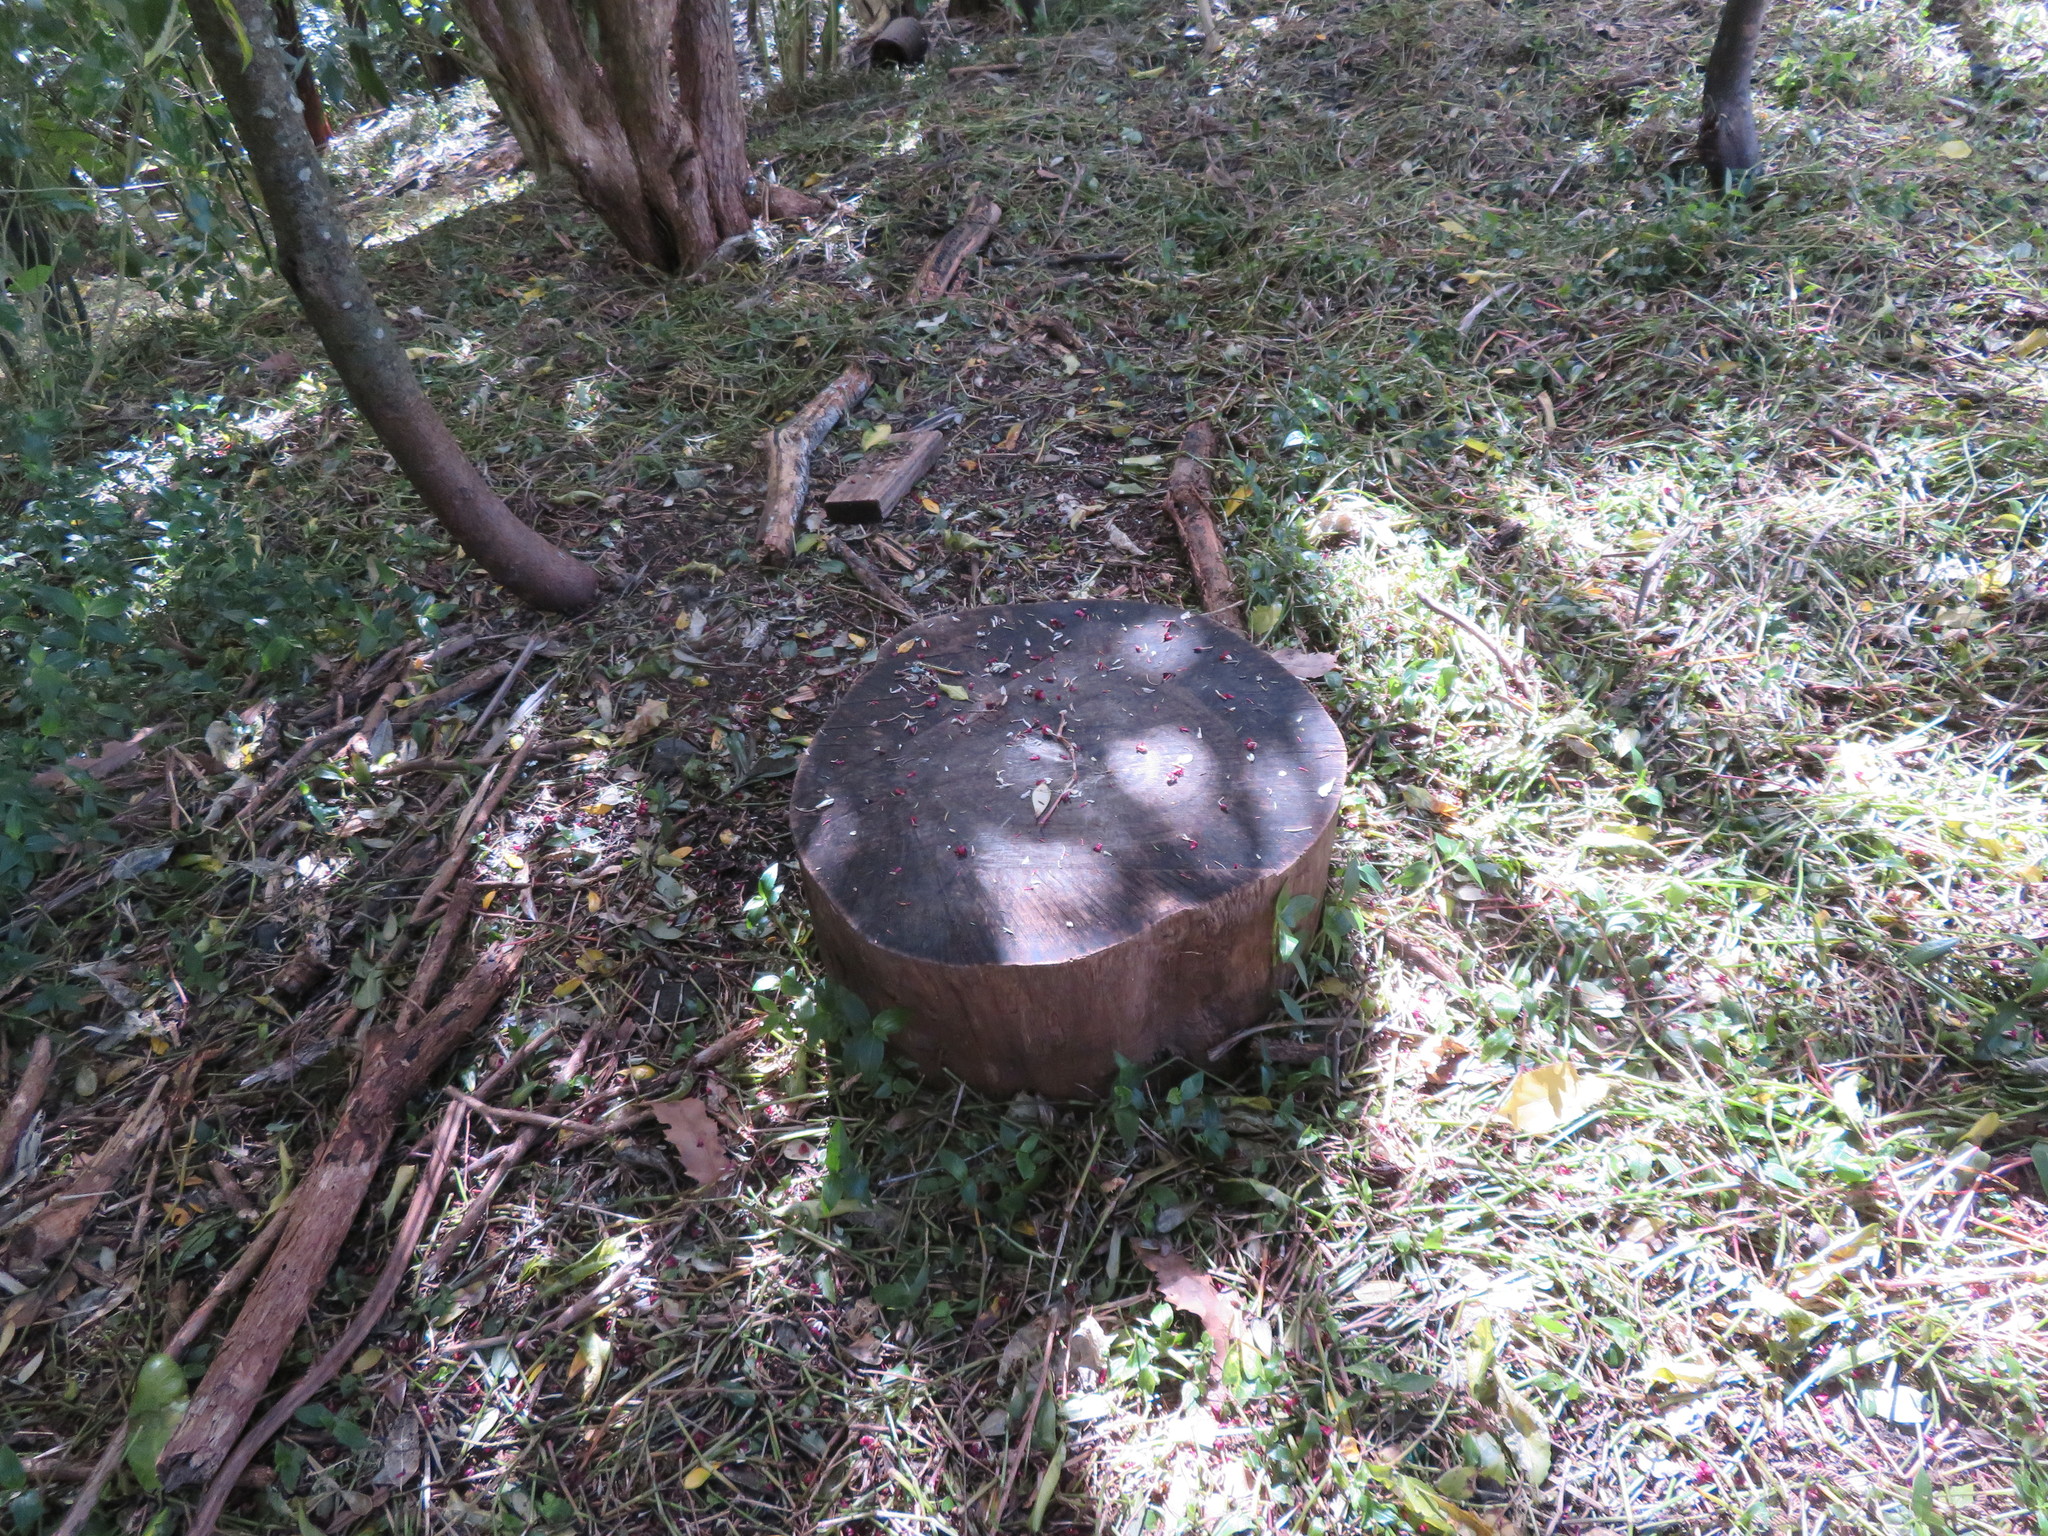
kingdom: Plantae
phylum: Tracheophyta
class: Liliopsida
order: Commelinales
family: Commelinaceae
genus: Tradescantia
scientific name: Tradescantia fluminensis
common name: Wandering-jew
